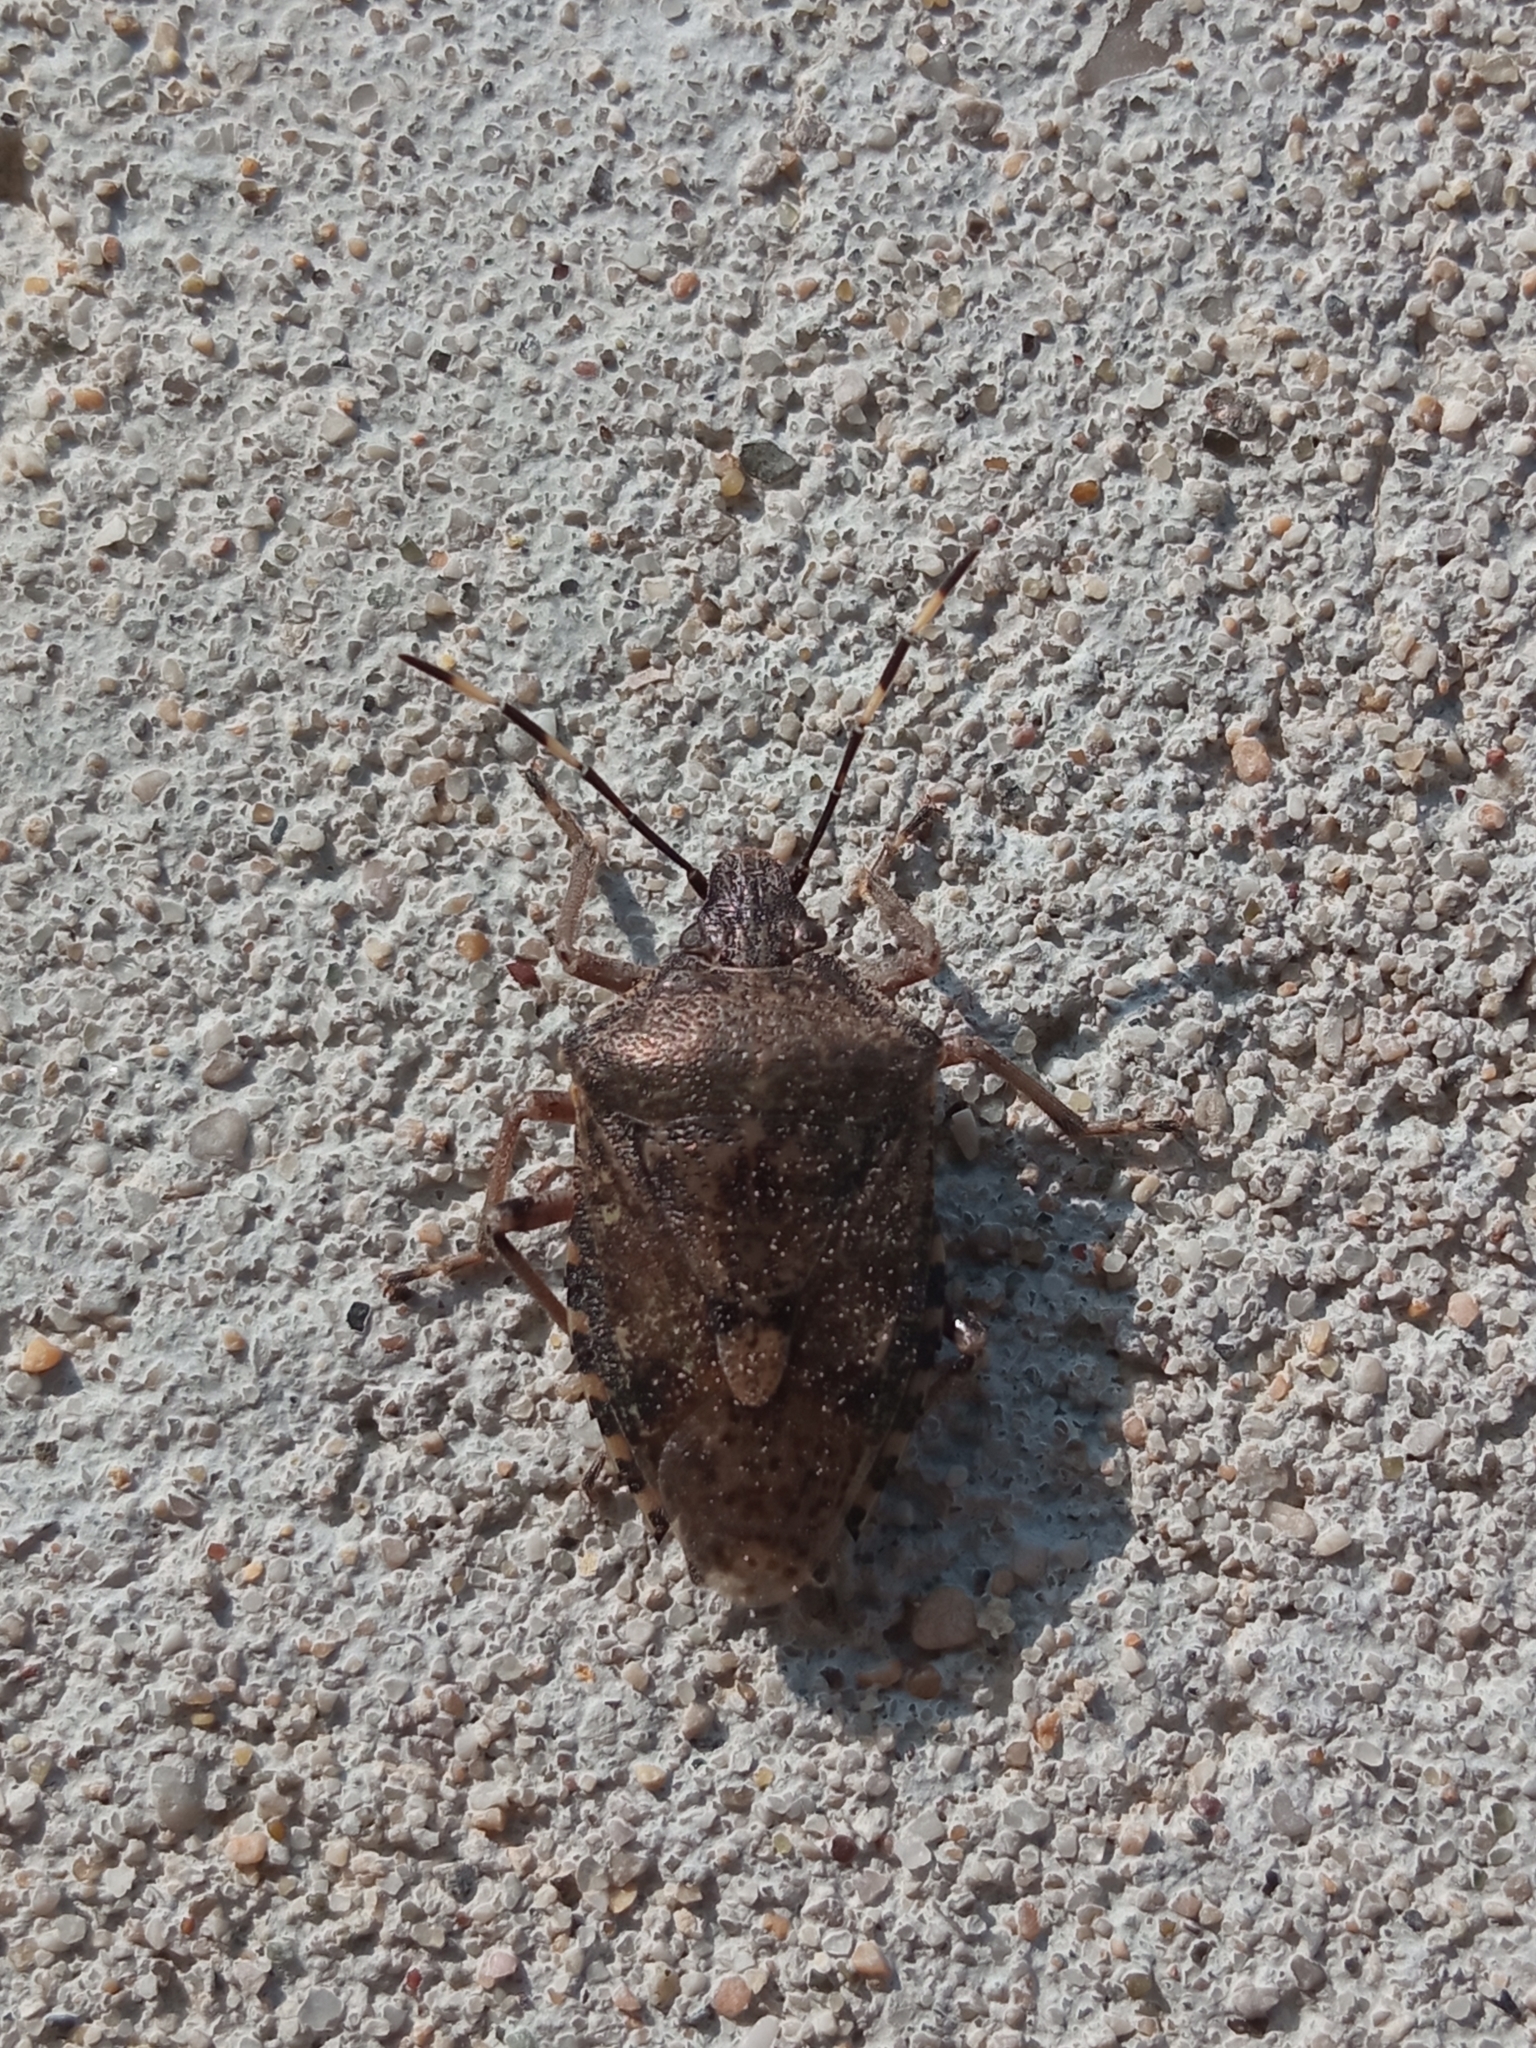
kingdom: Animalia
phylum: Arthropoda
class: Insecta
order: Hemiptera
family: Pentatomidae
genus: Rhaphigaster
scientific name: Rhaphigaster nebulosa
